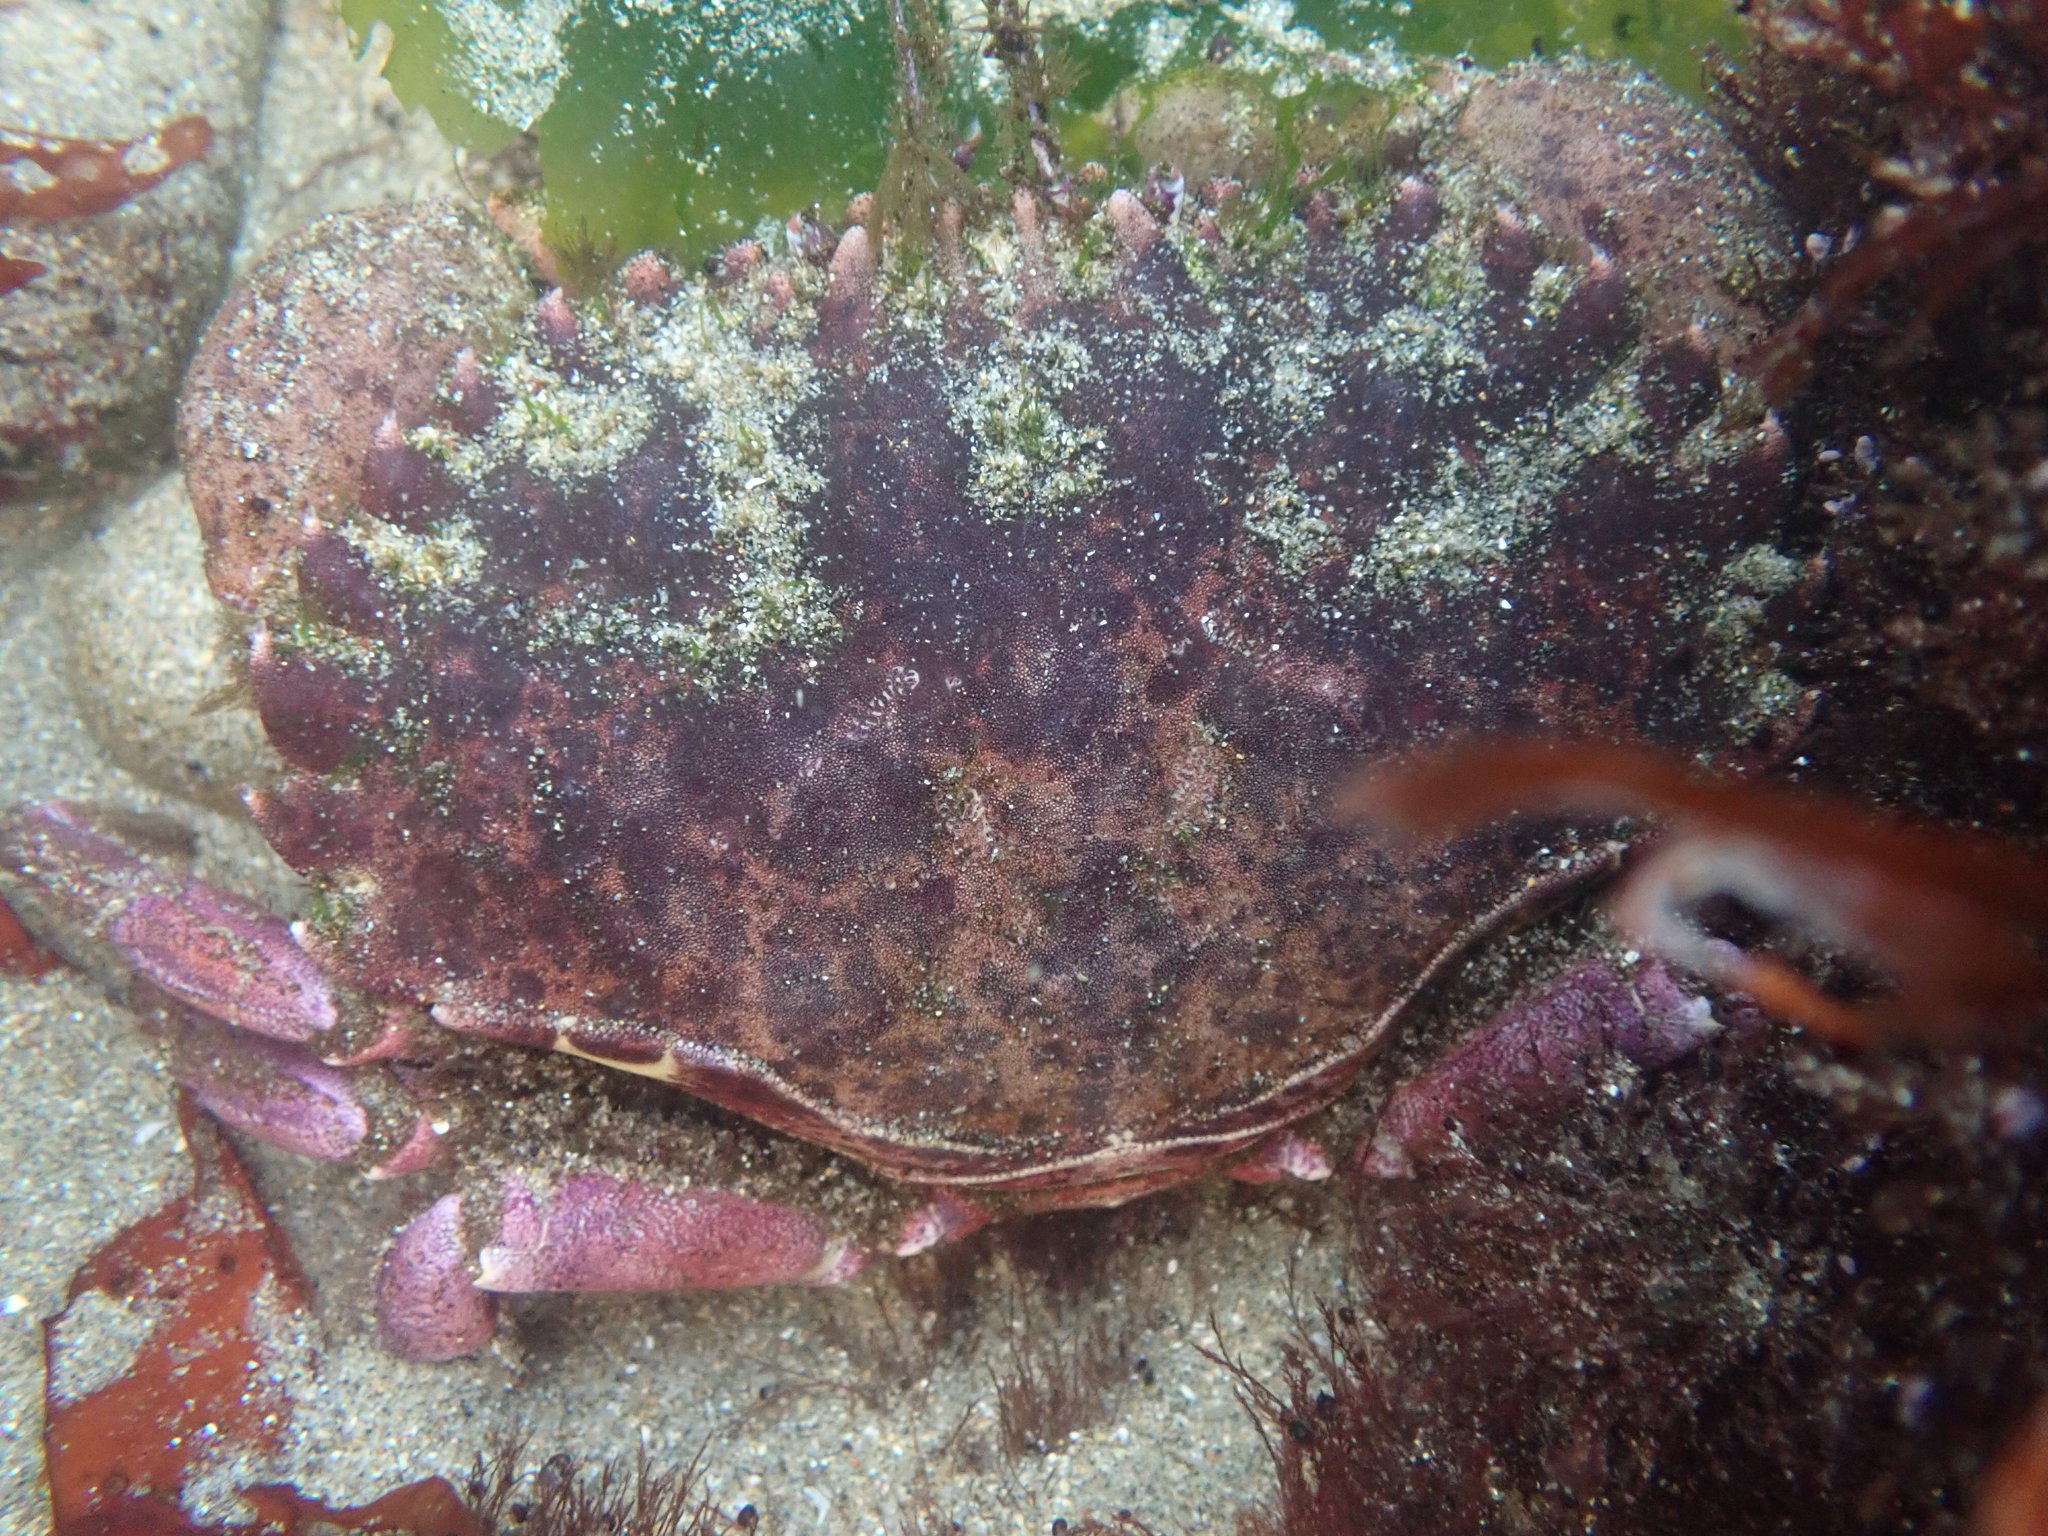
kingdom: Animalia
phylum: Arthropoda
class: Malacostraca
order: Decapoda
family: Cancridae
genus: Romaleon
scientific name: Romaleon antennarium
